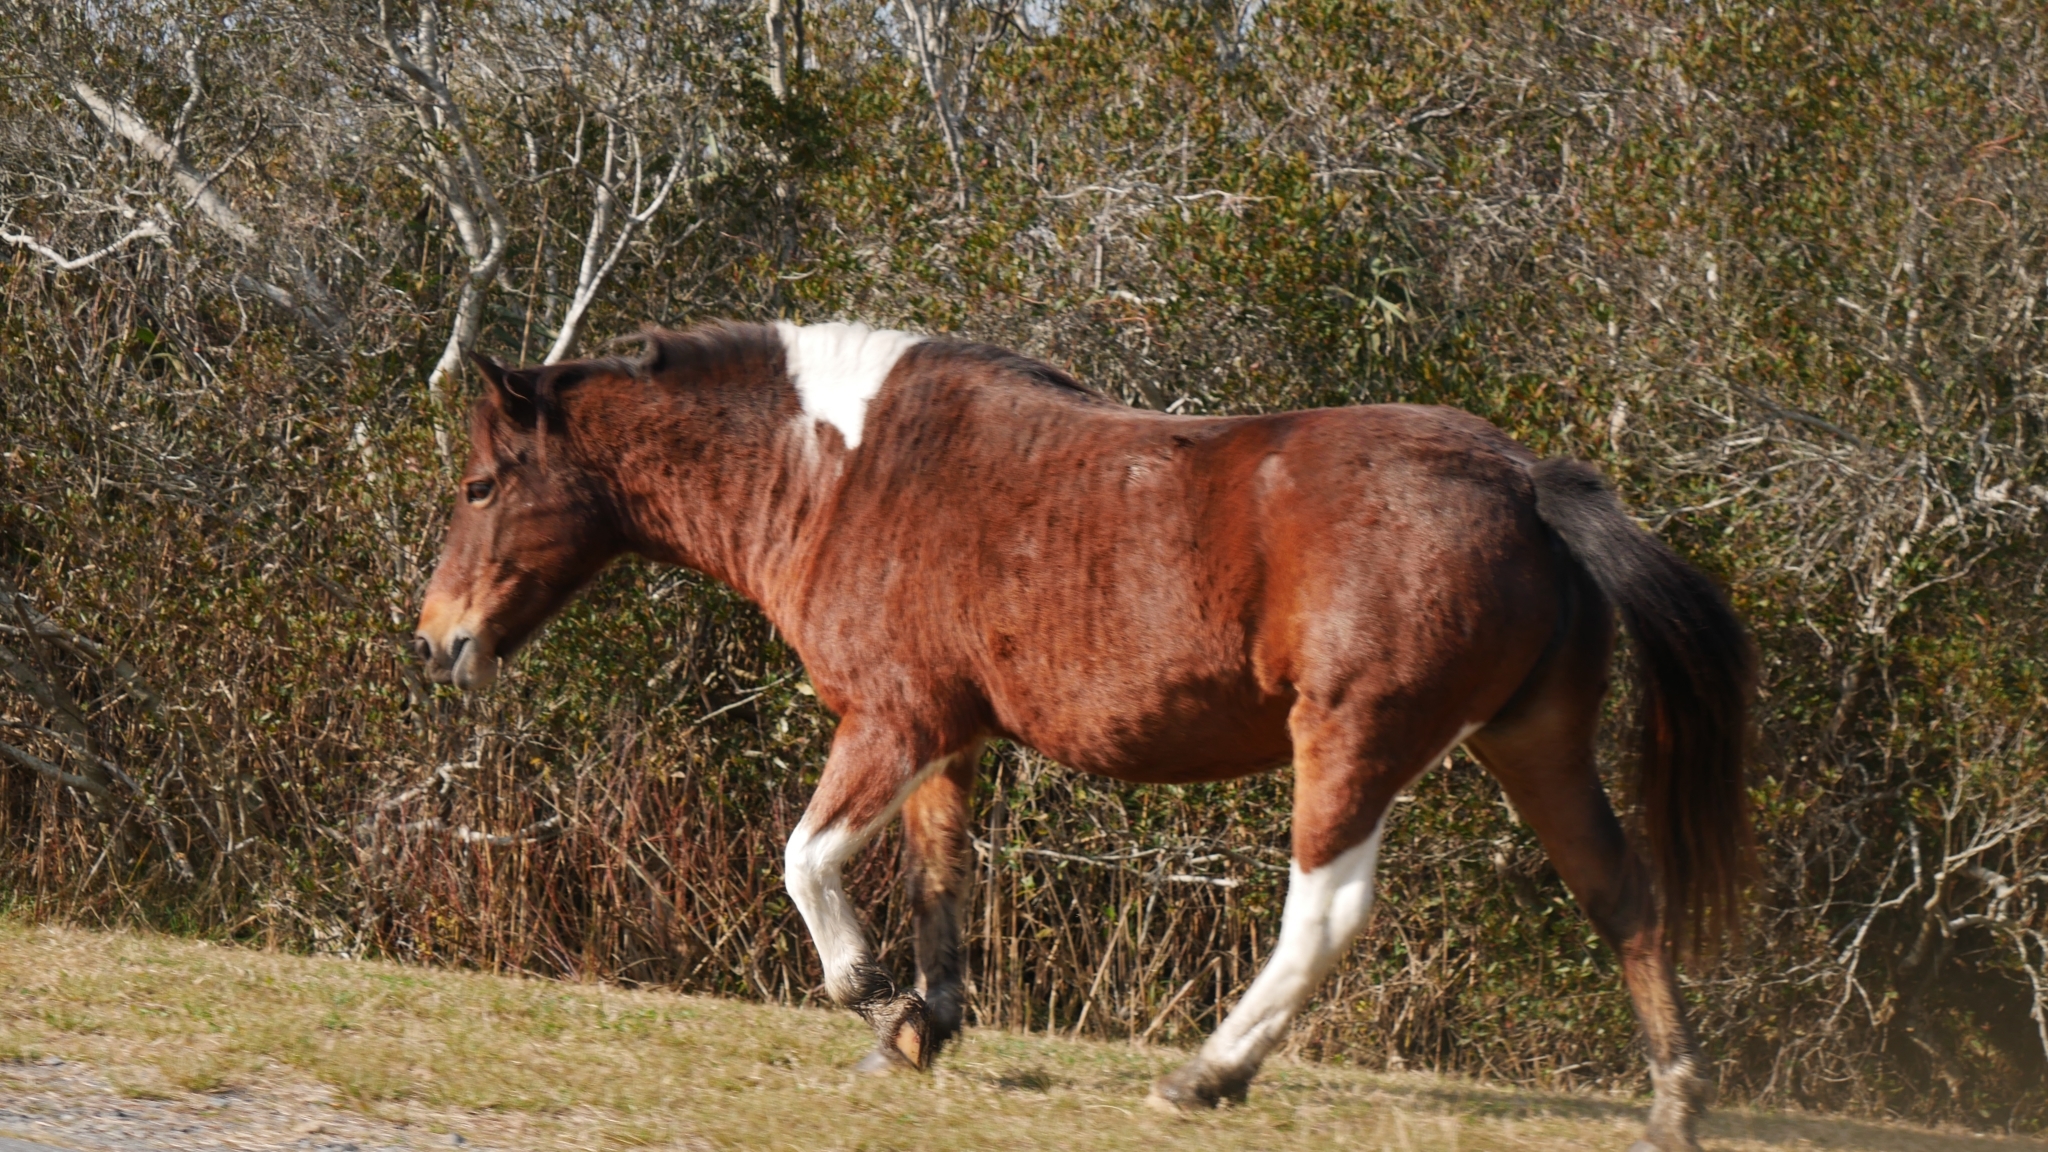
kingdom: Animalia
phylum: Chordata
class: Mammalia
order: Perissodactyla
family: Equidae
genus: Equus
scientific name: Equus caballus
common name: Horse
